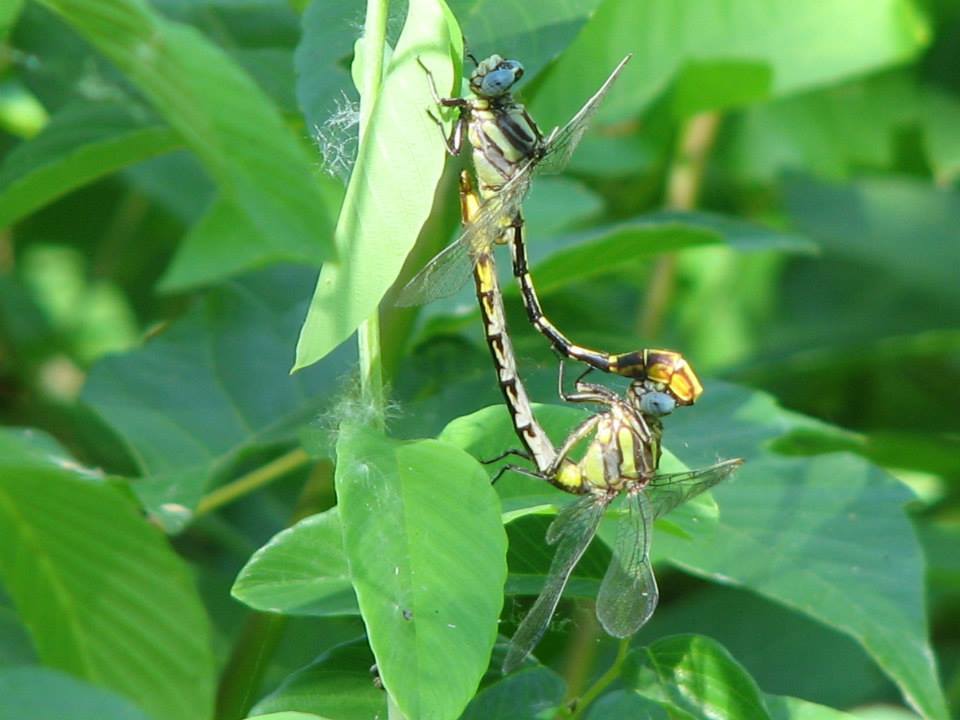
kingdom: Animalia
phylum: Arthropoda
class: Insecta
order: Odonata
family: Gomphidae
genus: Phanogomphus
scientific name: Phanogomphus militaris
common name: Sulphur-tipped clubtail
